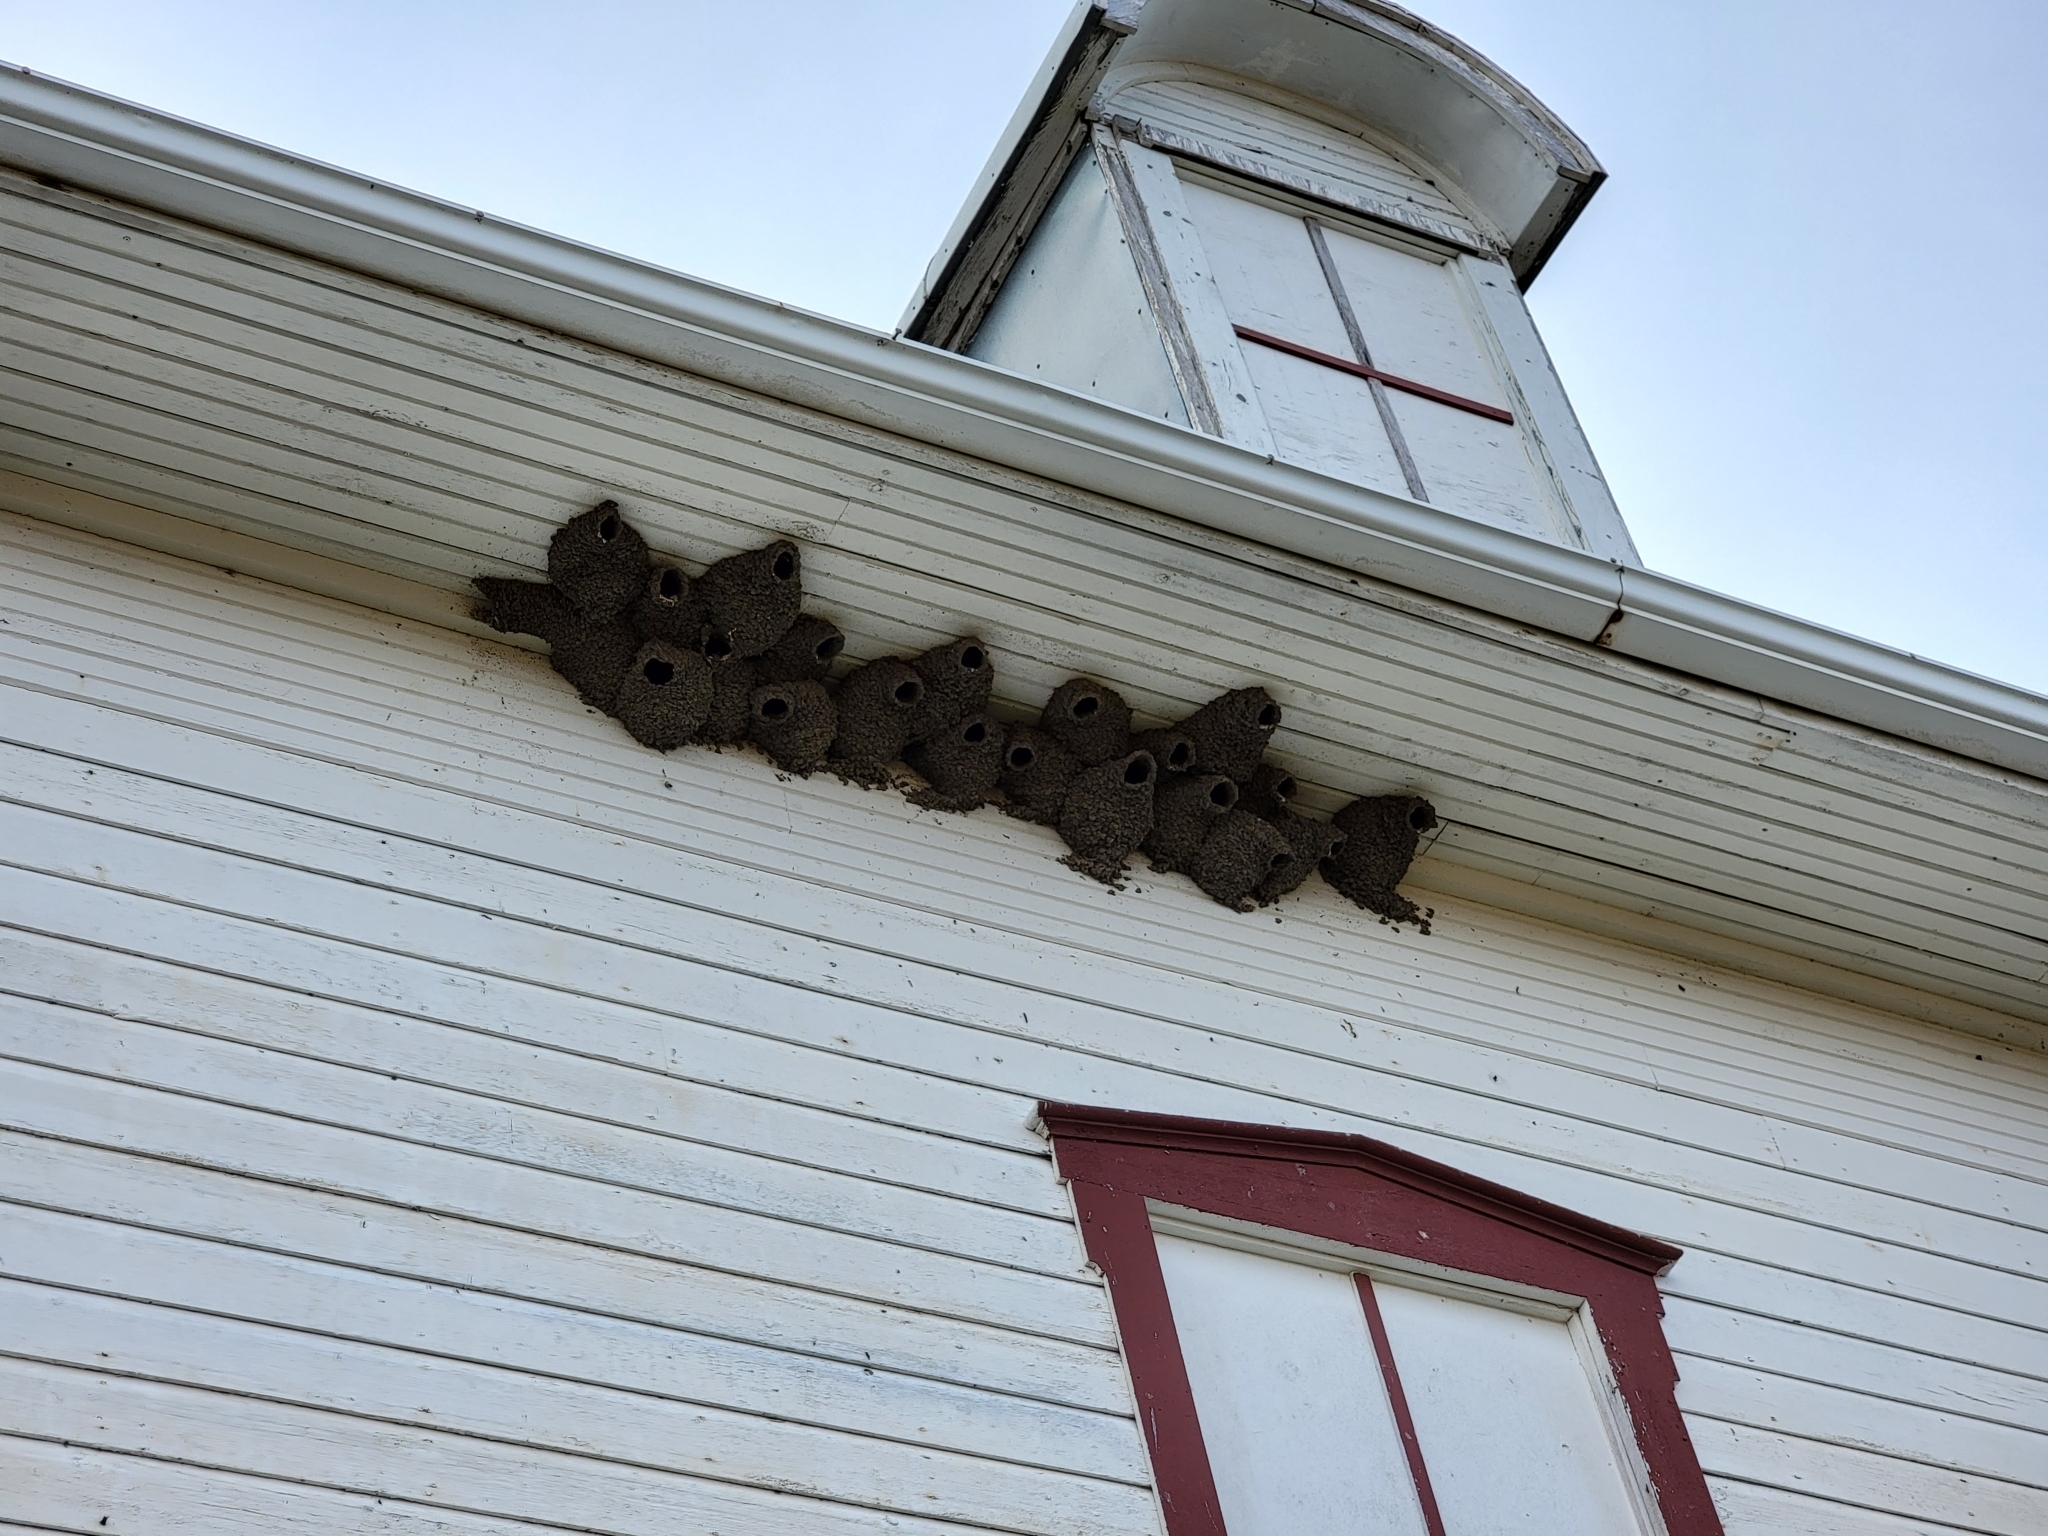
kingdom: Animalia
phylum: Chordata
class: Aves
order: Passeriformes
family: Hirundinidae
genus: Petrochelidon
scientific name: Petrochelidon pyrrhonota
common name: American cliff swallow
